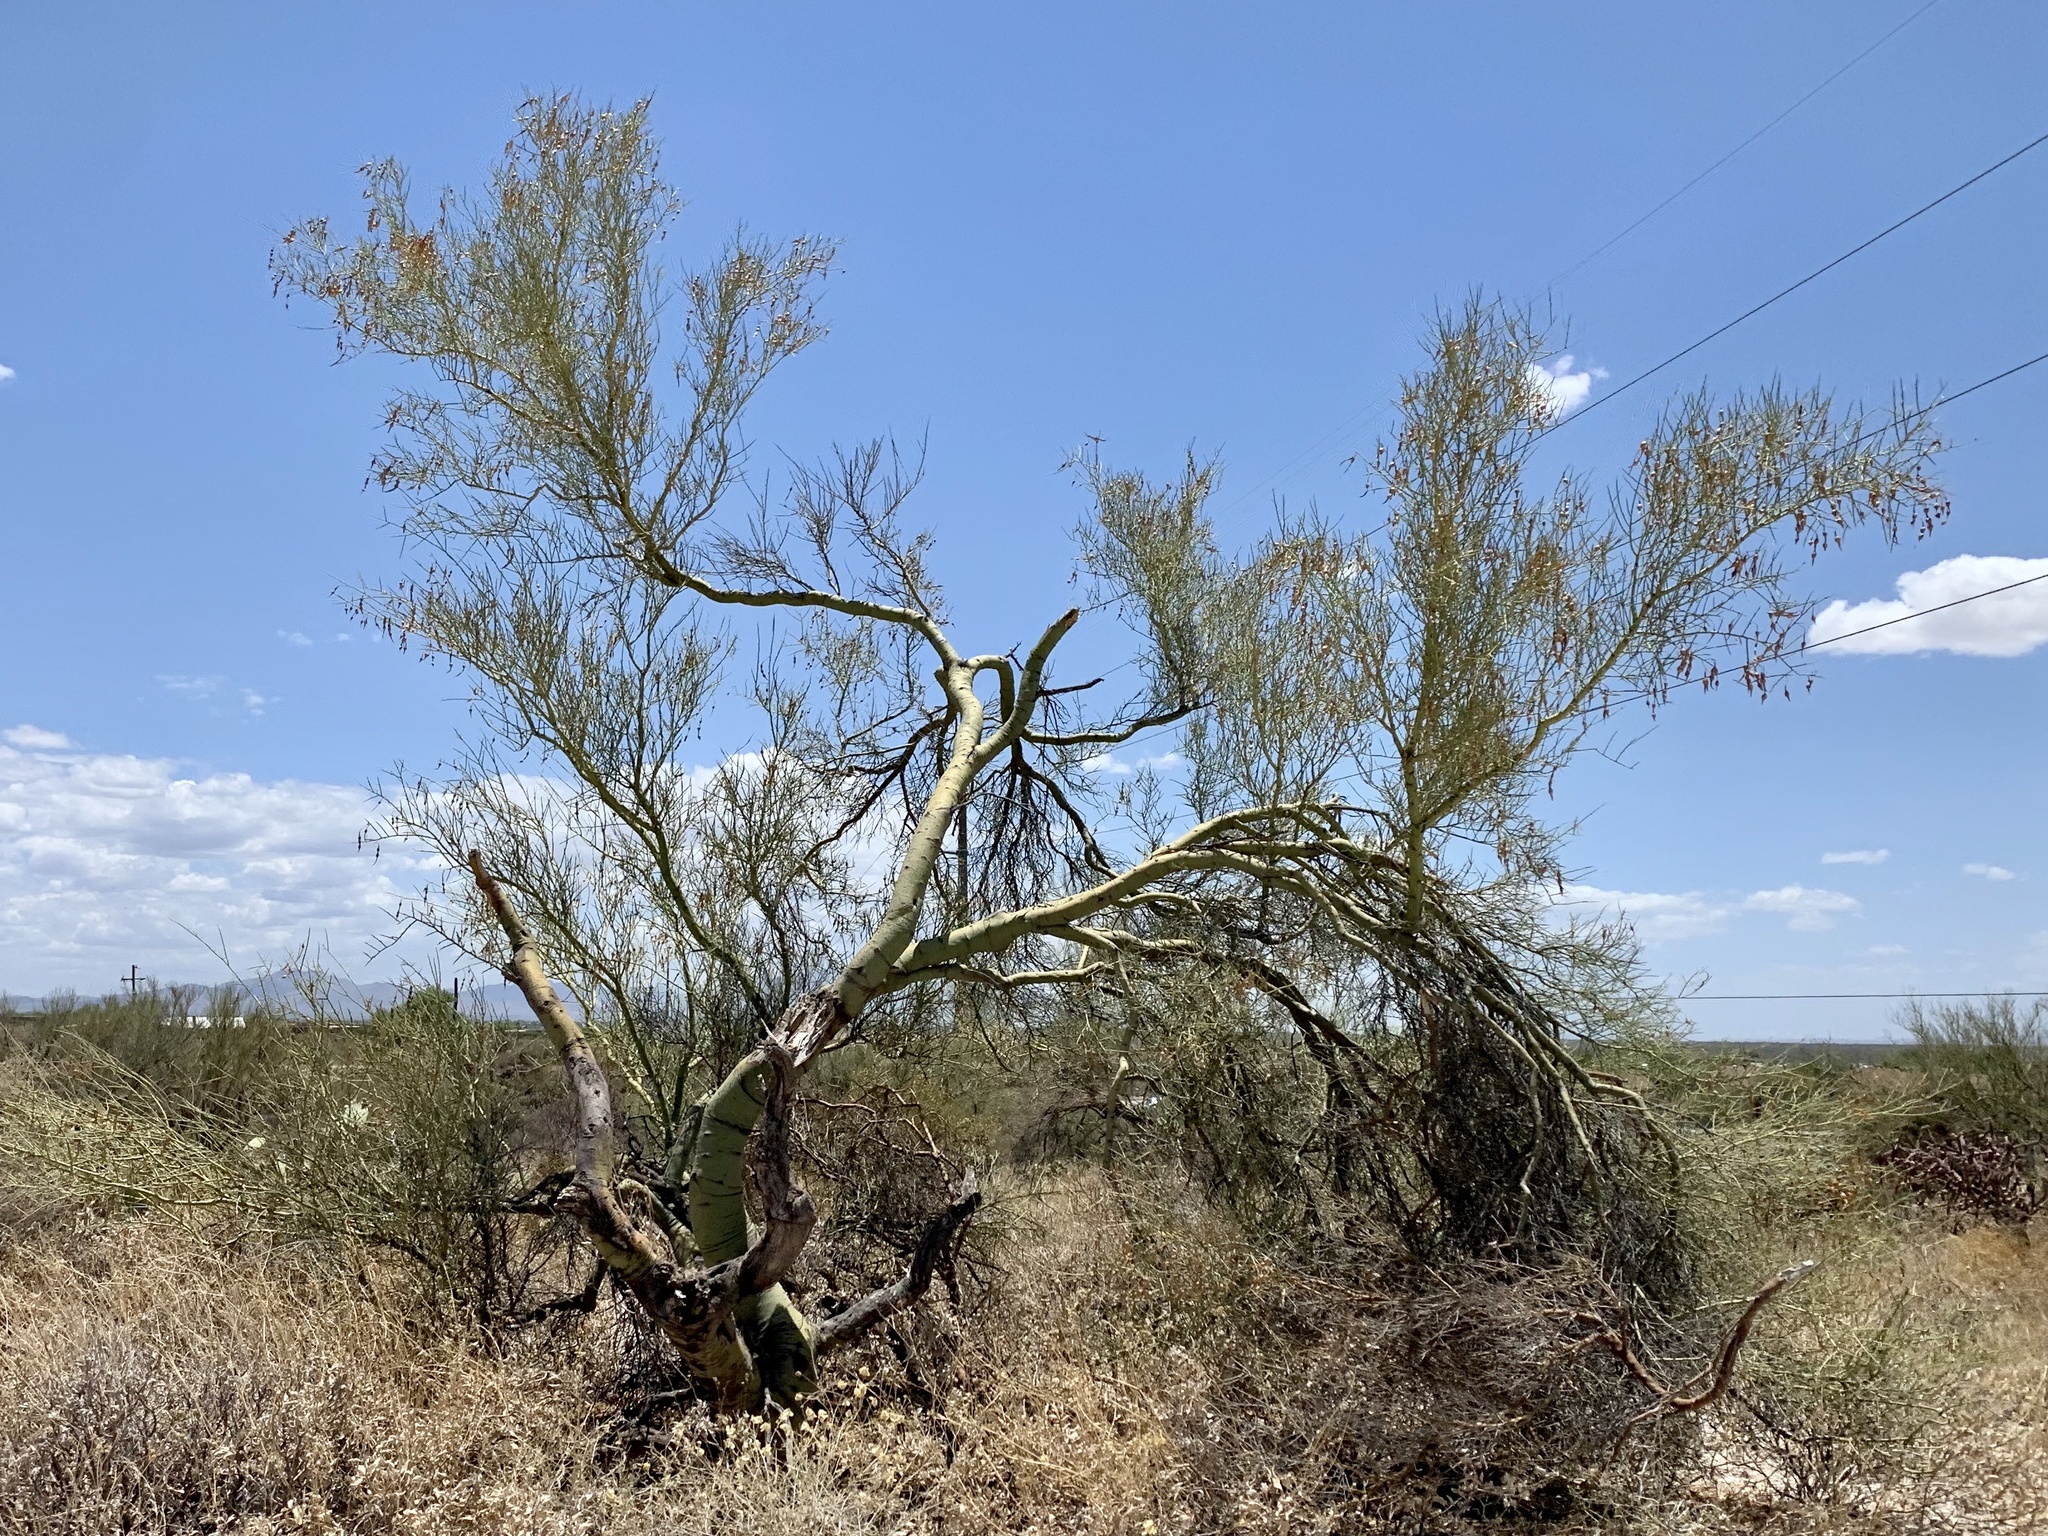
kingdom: Plantae
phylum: Tracheophyta
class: Magnoliopsida
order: Fabales
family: Fabaceae
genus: Parkinsonia
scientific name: Parkinsonia microphylla
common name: Yellow paloverde
